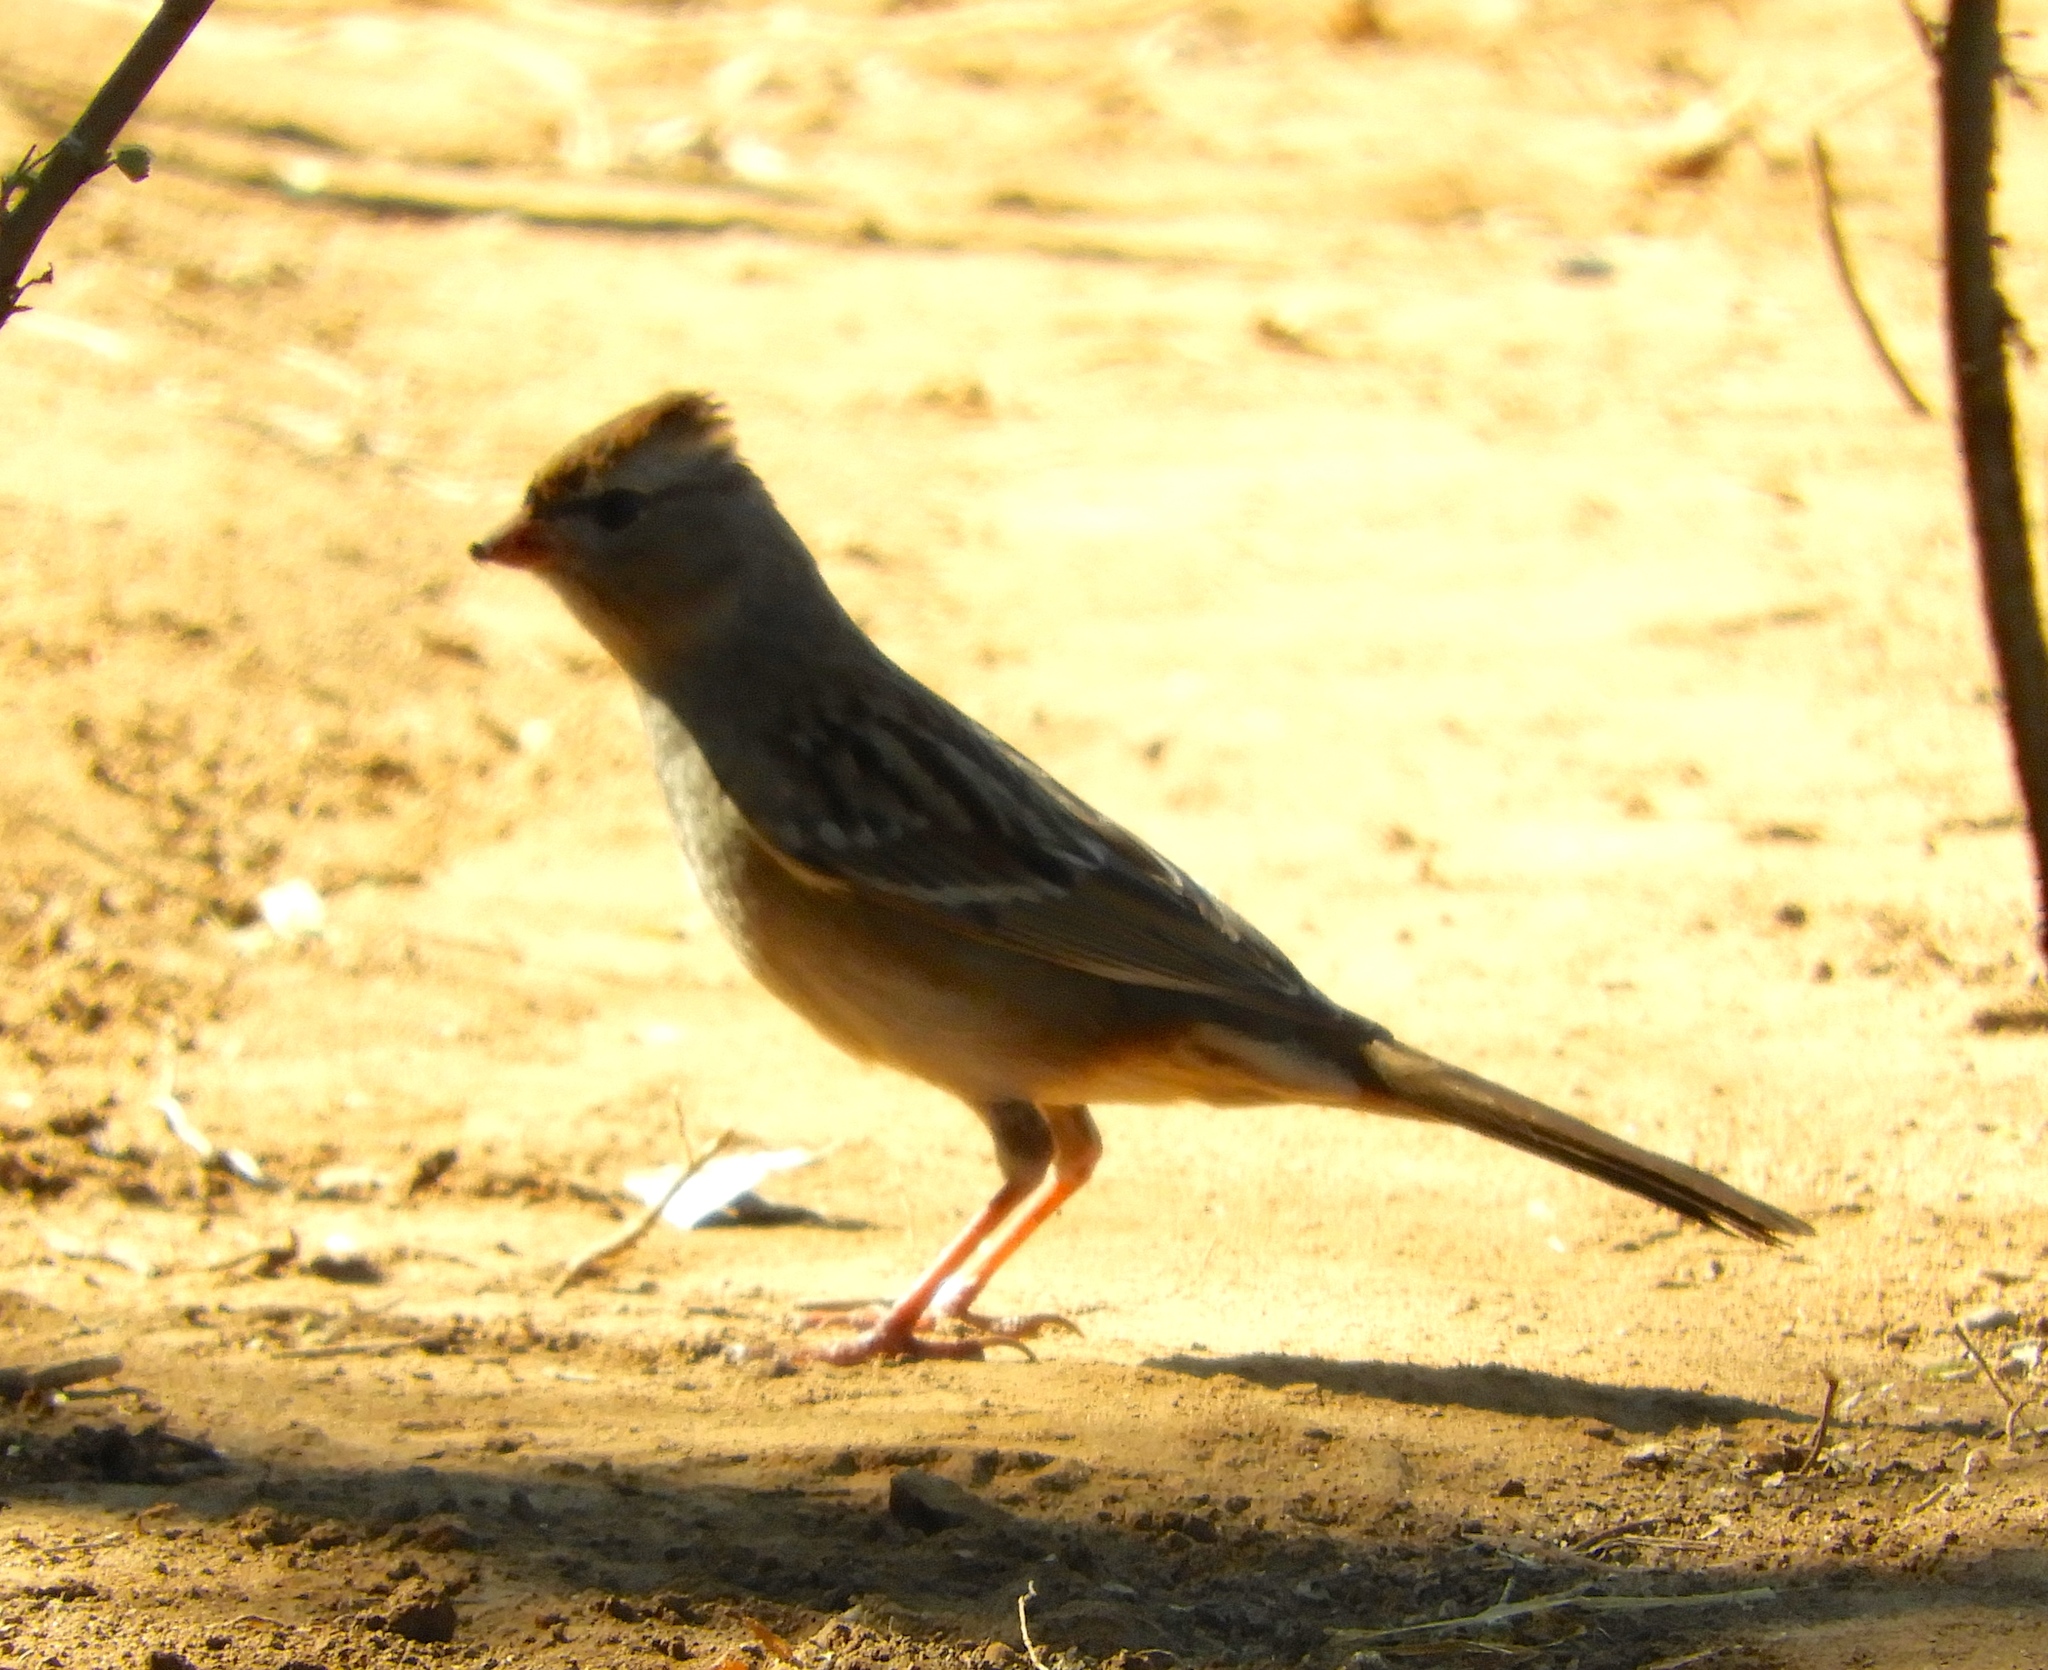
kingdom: Animalia
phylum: Chordata
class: Aves
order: Passeriformes
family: Passerellidae
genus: Zonotrichia
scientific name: Zonotrichia leucophrys
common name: White-crowned sparrow
